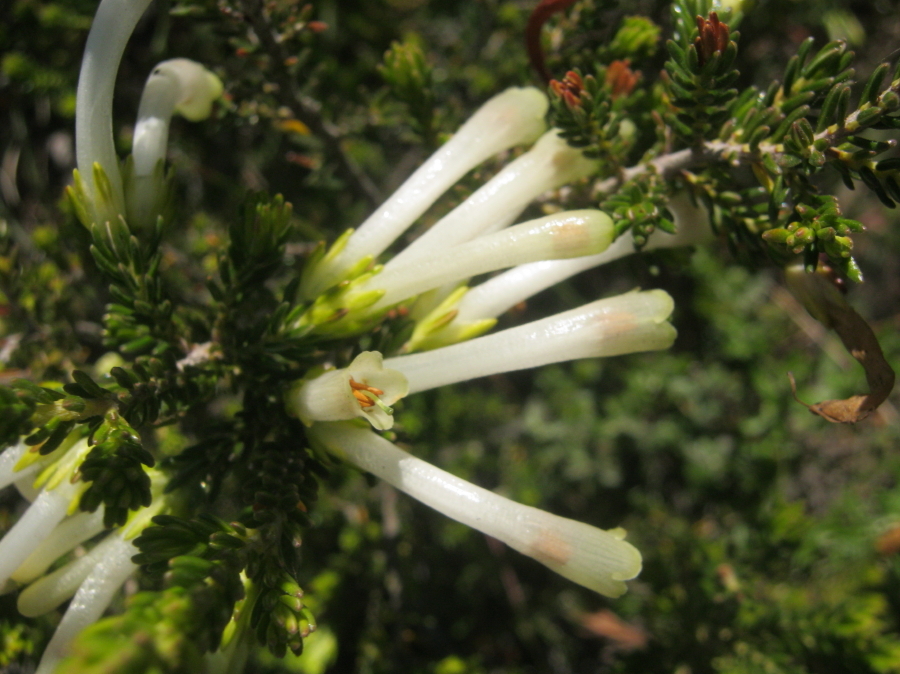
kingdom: Plantae
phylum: Tracheophyta
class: Magnoliopsida
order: Ericales
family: Ericaceae
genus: Erica
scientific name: Erica discolor
